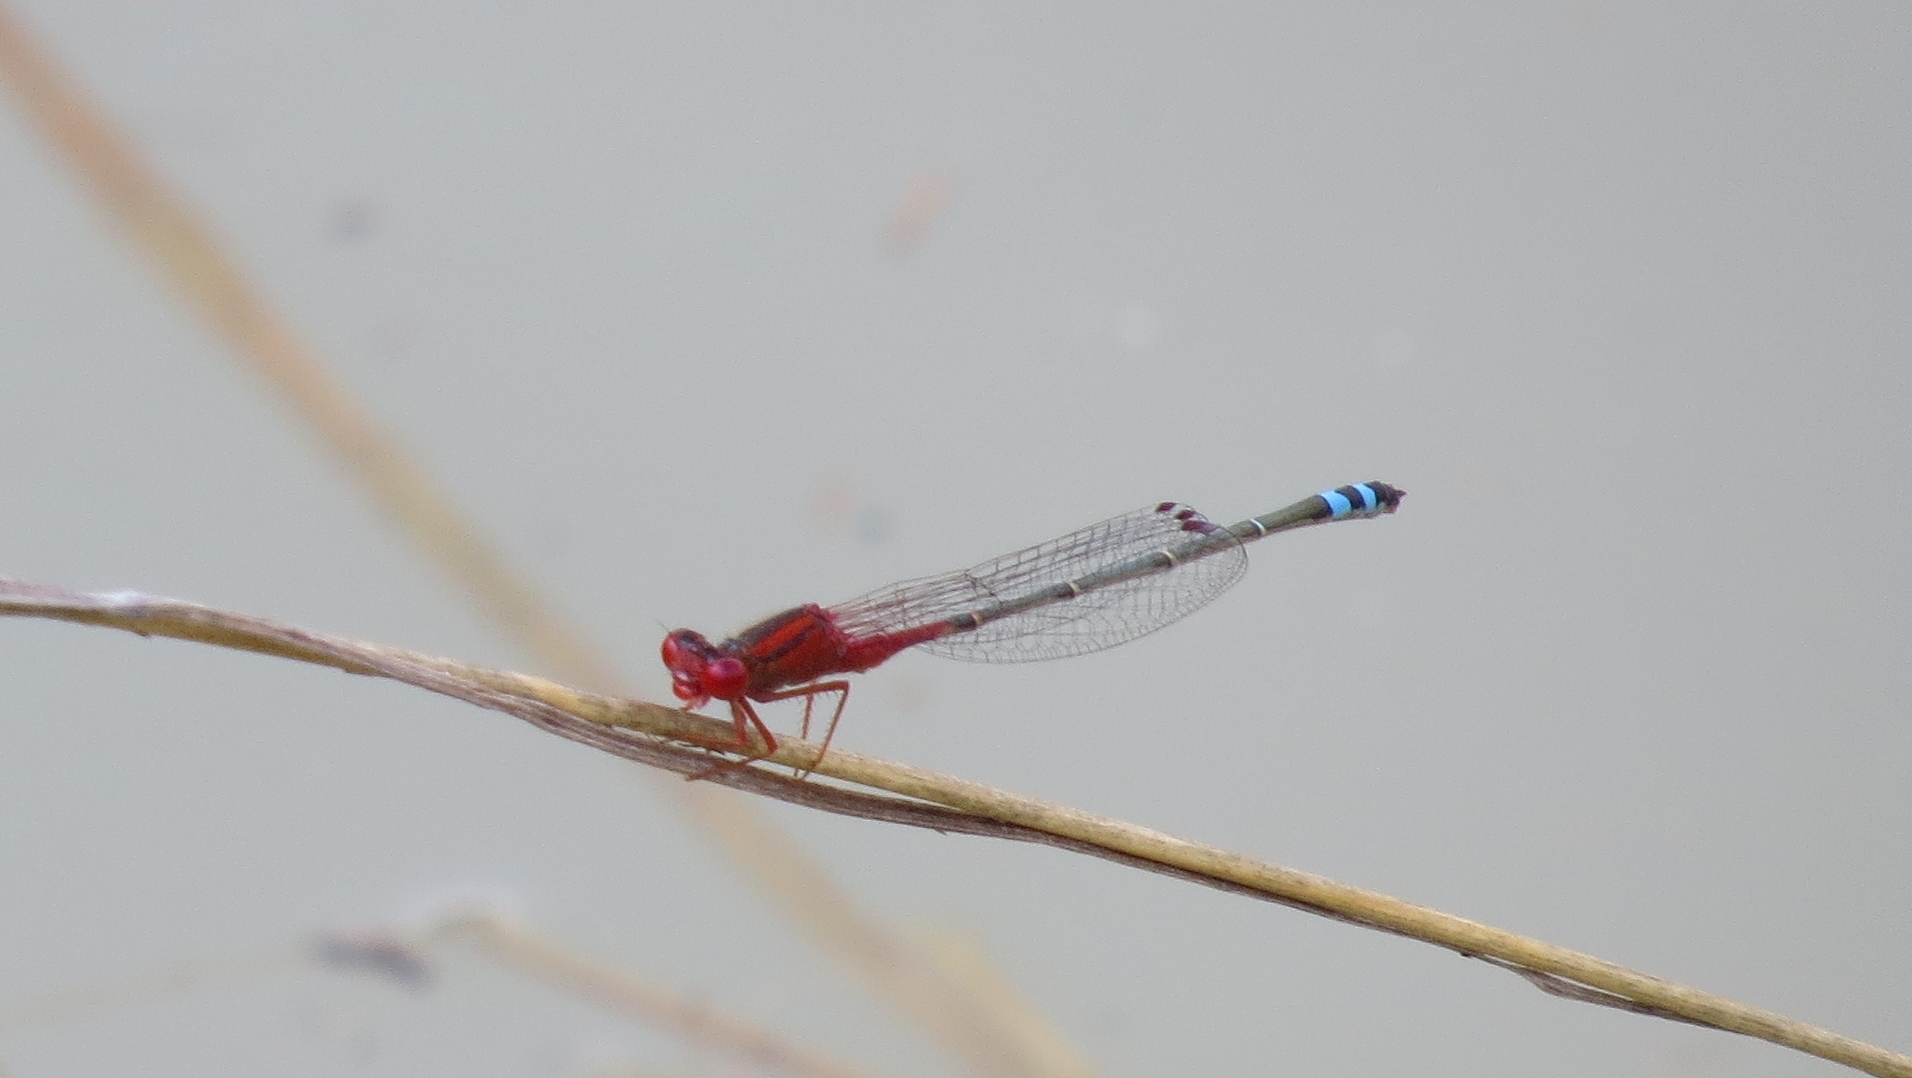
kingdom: Animalia
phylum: Arthropoda
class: Insecta
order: Odonata
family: Coenagrionidae
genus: Xanthagrion
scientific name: Xanthagrion erythroneurum
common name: Red and blue damsel
